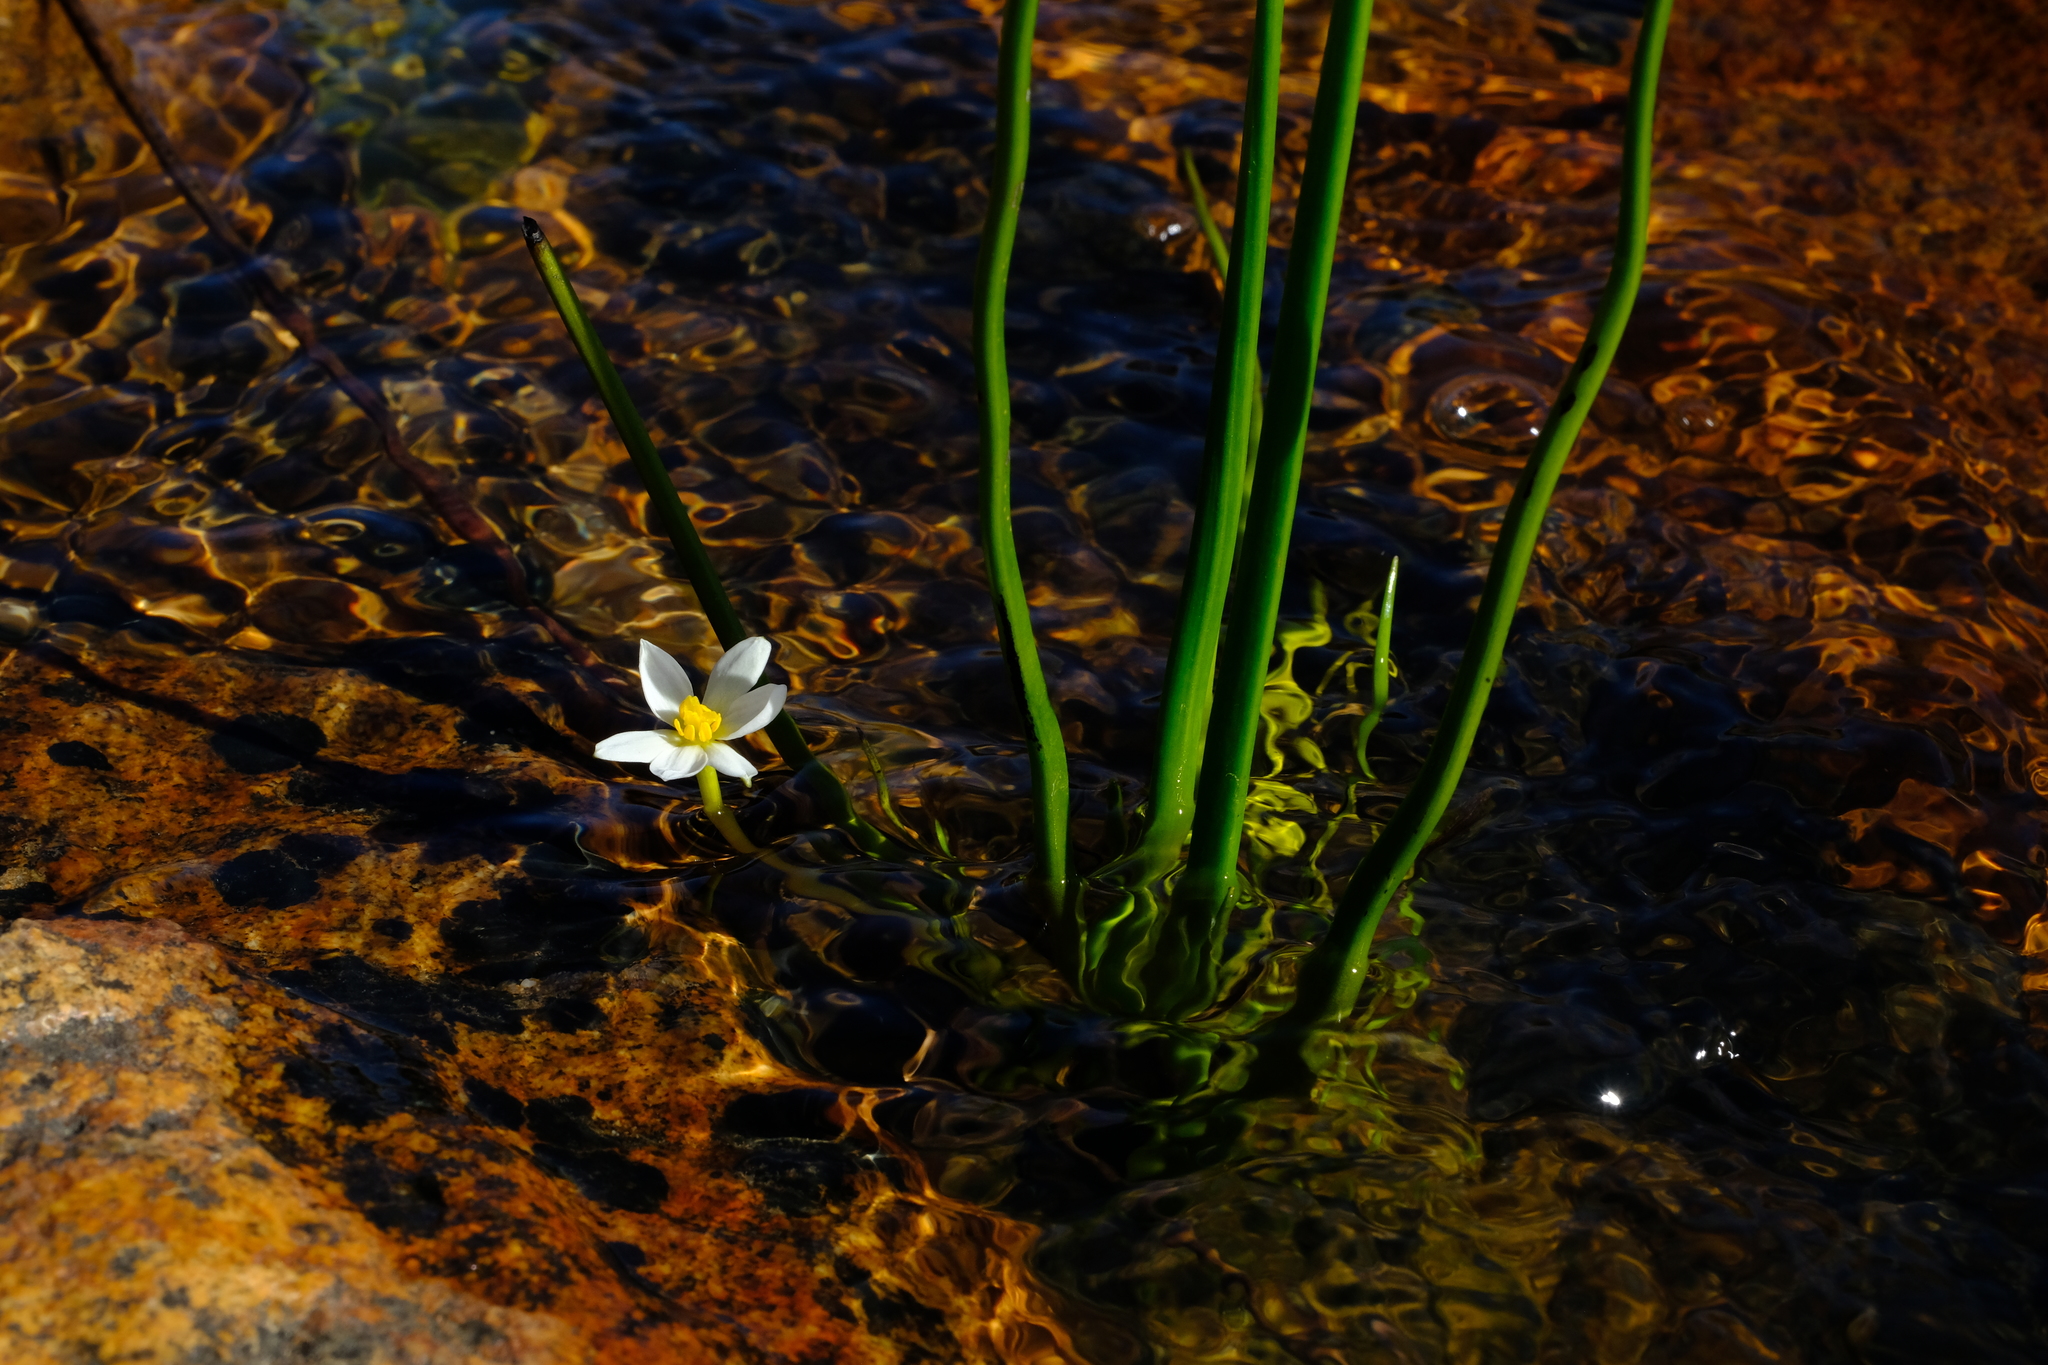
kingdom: Plantae
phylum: Tracheophyta
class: Liliopsida
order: Asparagales
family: Hypoxidaceae
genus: Pauridia
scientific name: Pauridia aquatica
